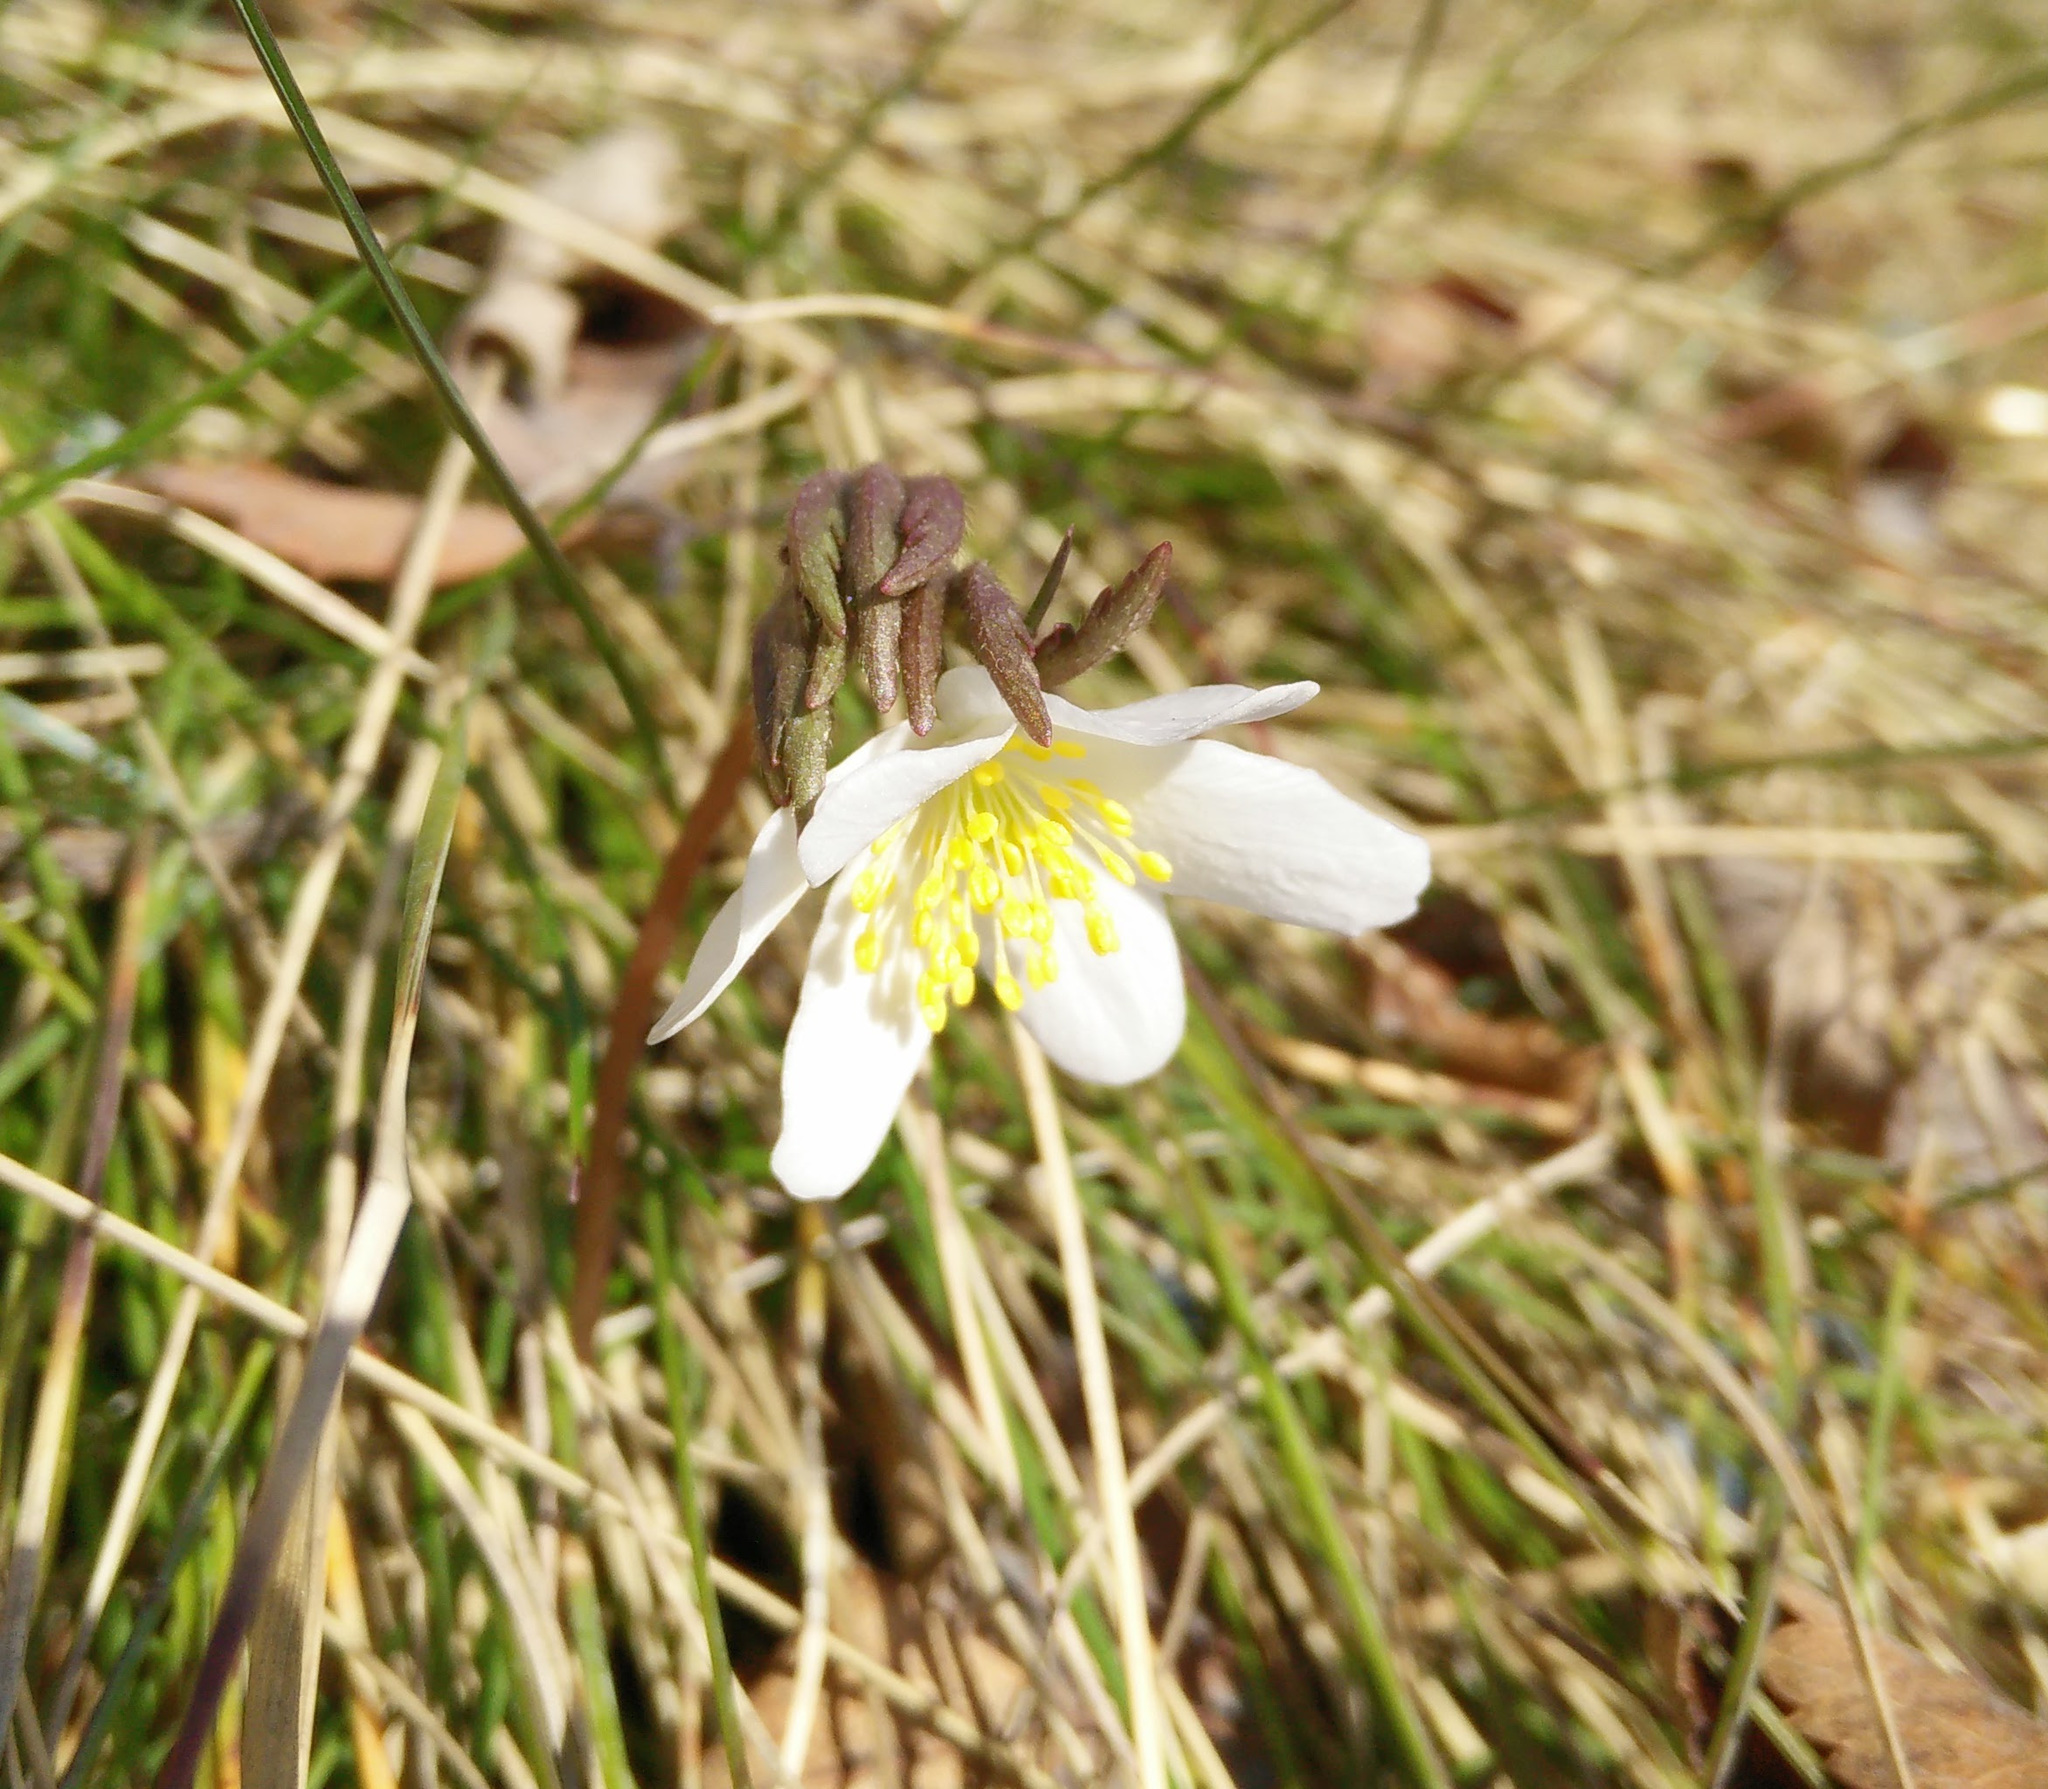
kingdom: Plantae
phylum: Tracheophyta
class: Magnoliopsida
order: Ranunculales
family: Ranunculaceae
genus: Anemone
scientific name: Anemone nemorosa
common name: Wood anemone
